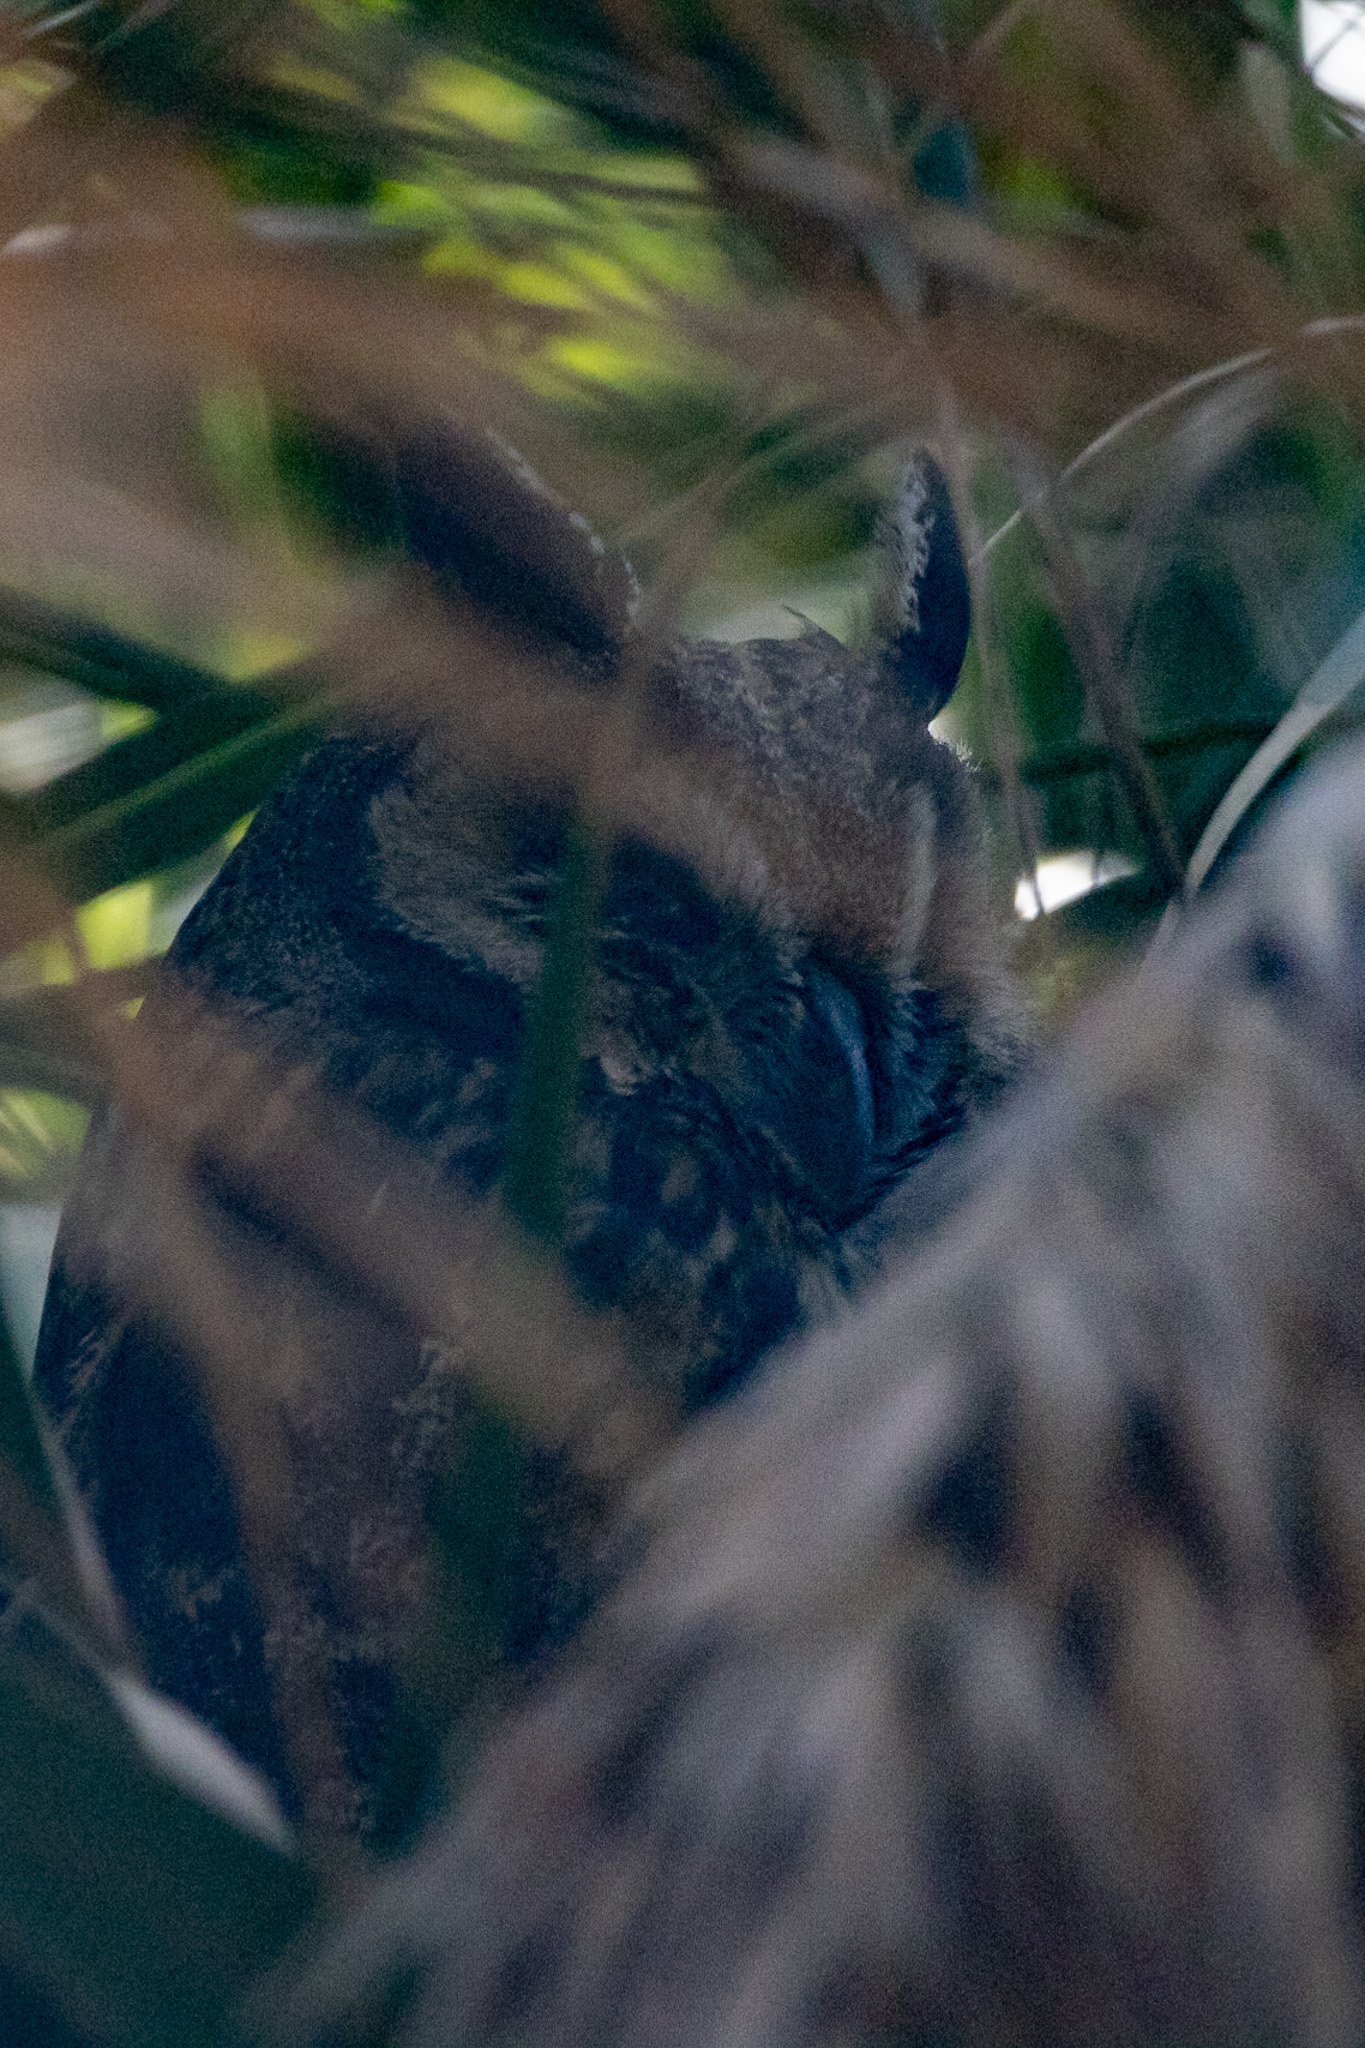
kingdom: Animalia
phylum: Chordata
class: Aves
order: Strigiformes
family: Strigidae
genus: Asio
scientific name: Asio otus
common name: Long-eared owl
